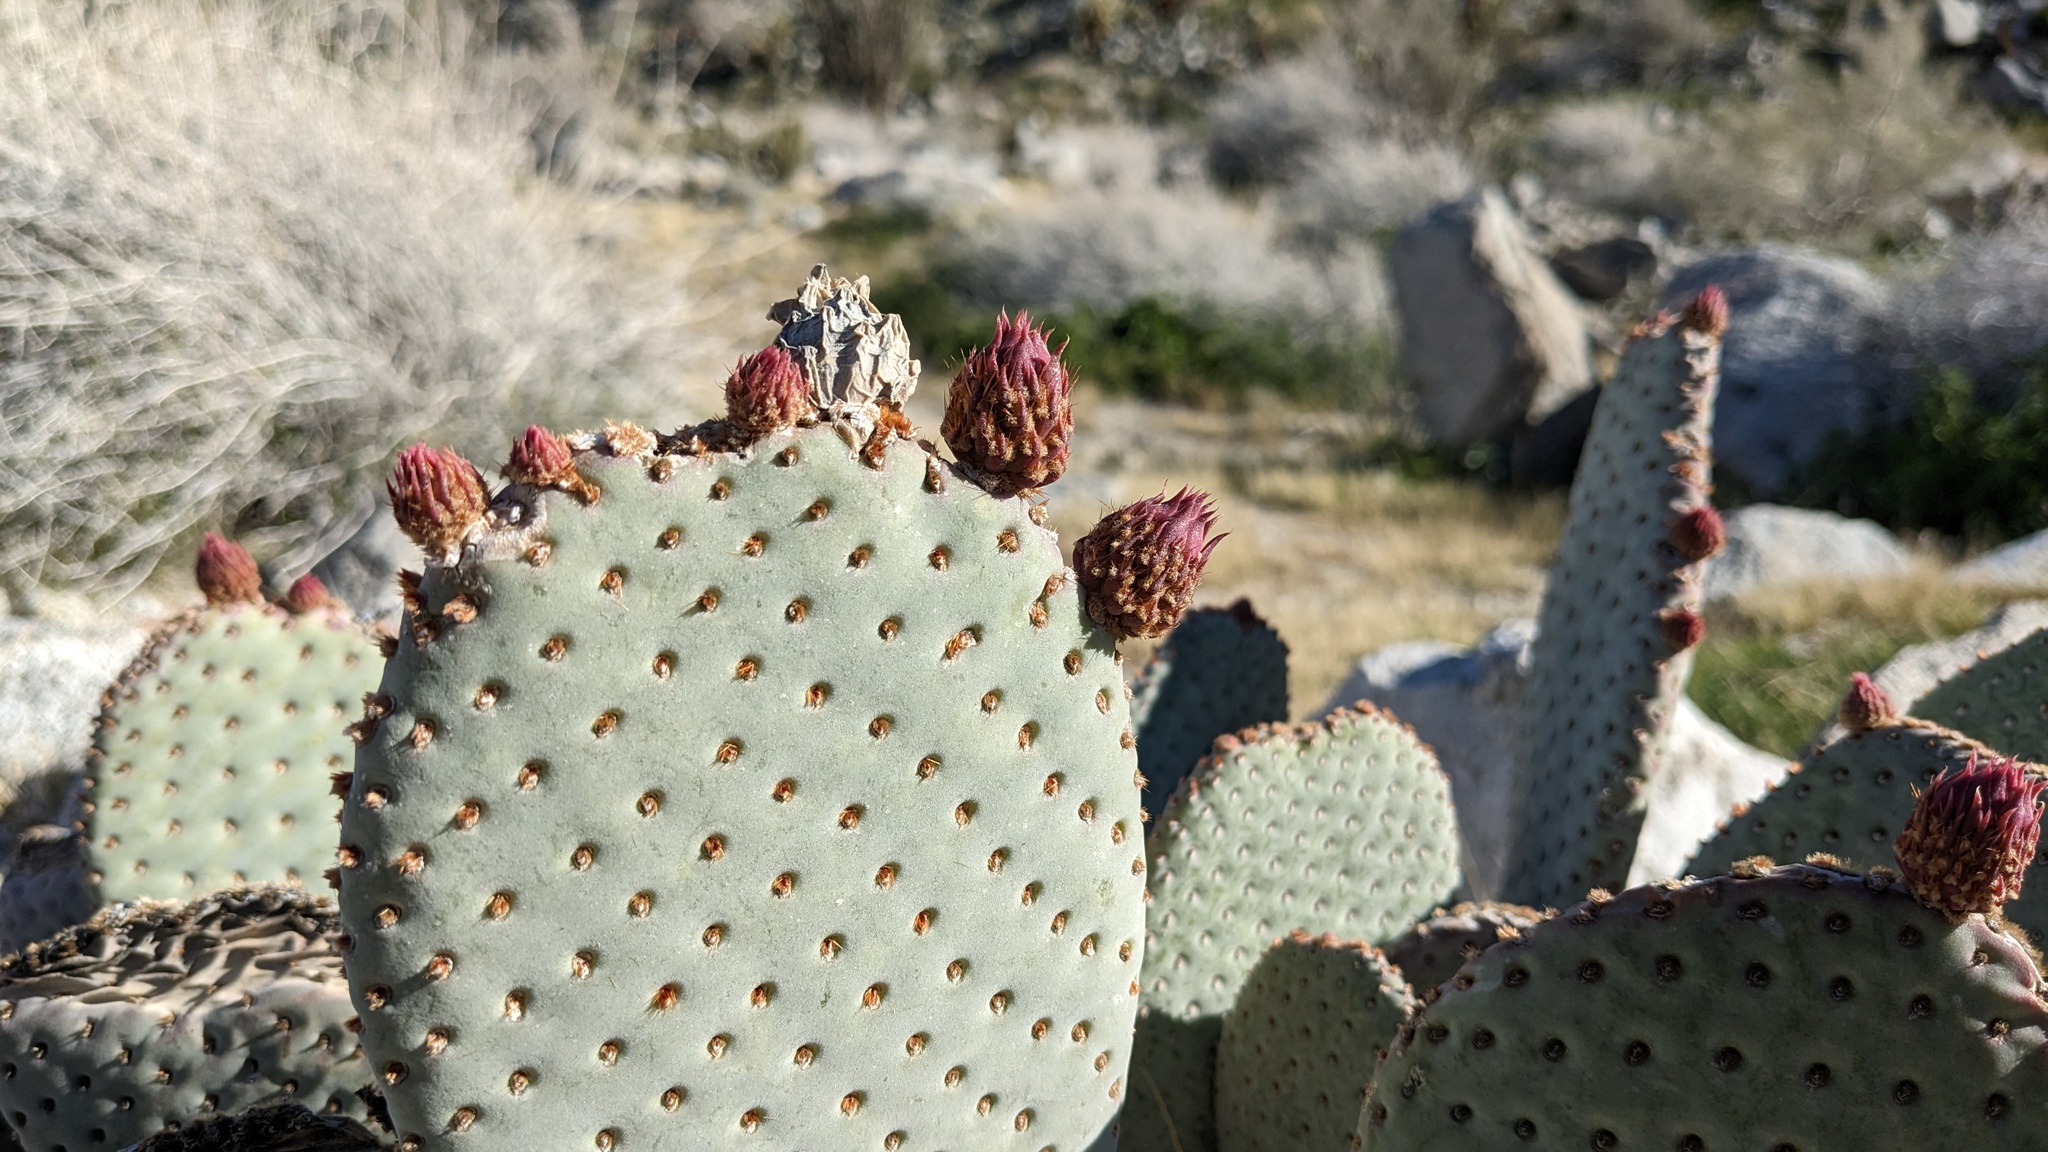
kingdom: Plantae
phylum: Tracheophyta
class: Magnoliopsida
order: Caryophyllales
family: Cactaceae
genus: Opuntia
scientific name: Opuntia basilaris
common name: Beavertail prickly-pear
